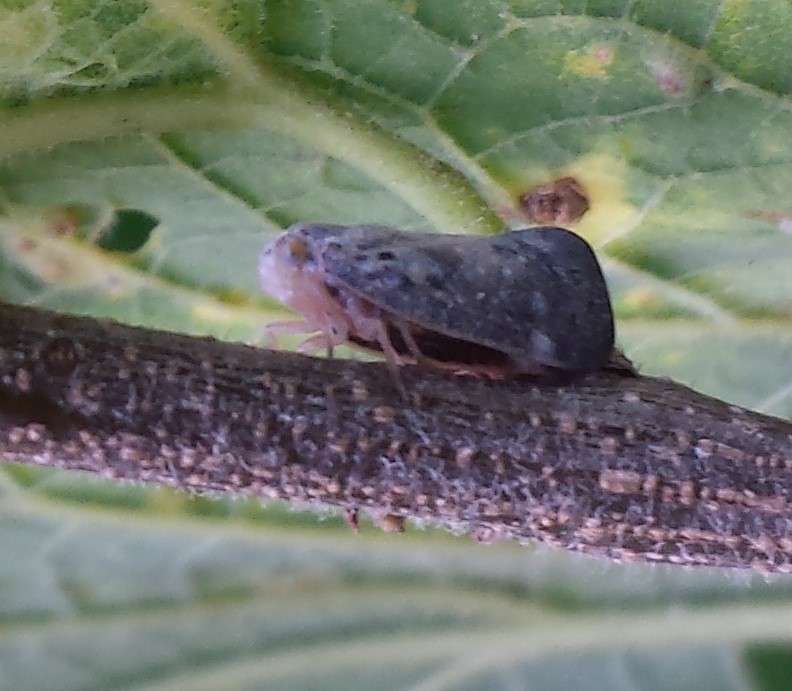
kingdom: Animalia
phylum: Arthropoda
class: Insecta
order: Hemiptera
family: Flatidae
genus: Metcalfa
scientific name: Metcalfa pruinosa
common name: Citrus flatid planthopper
